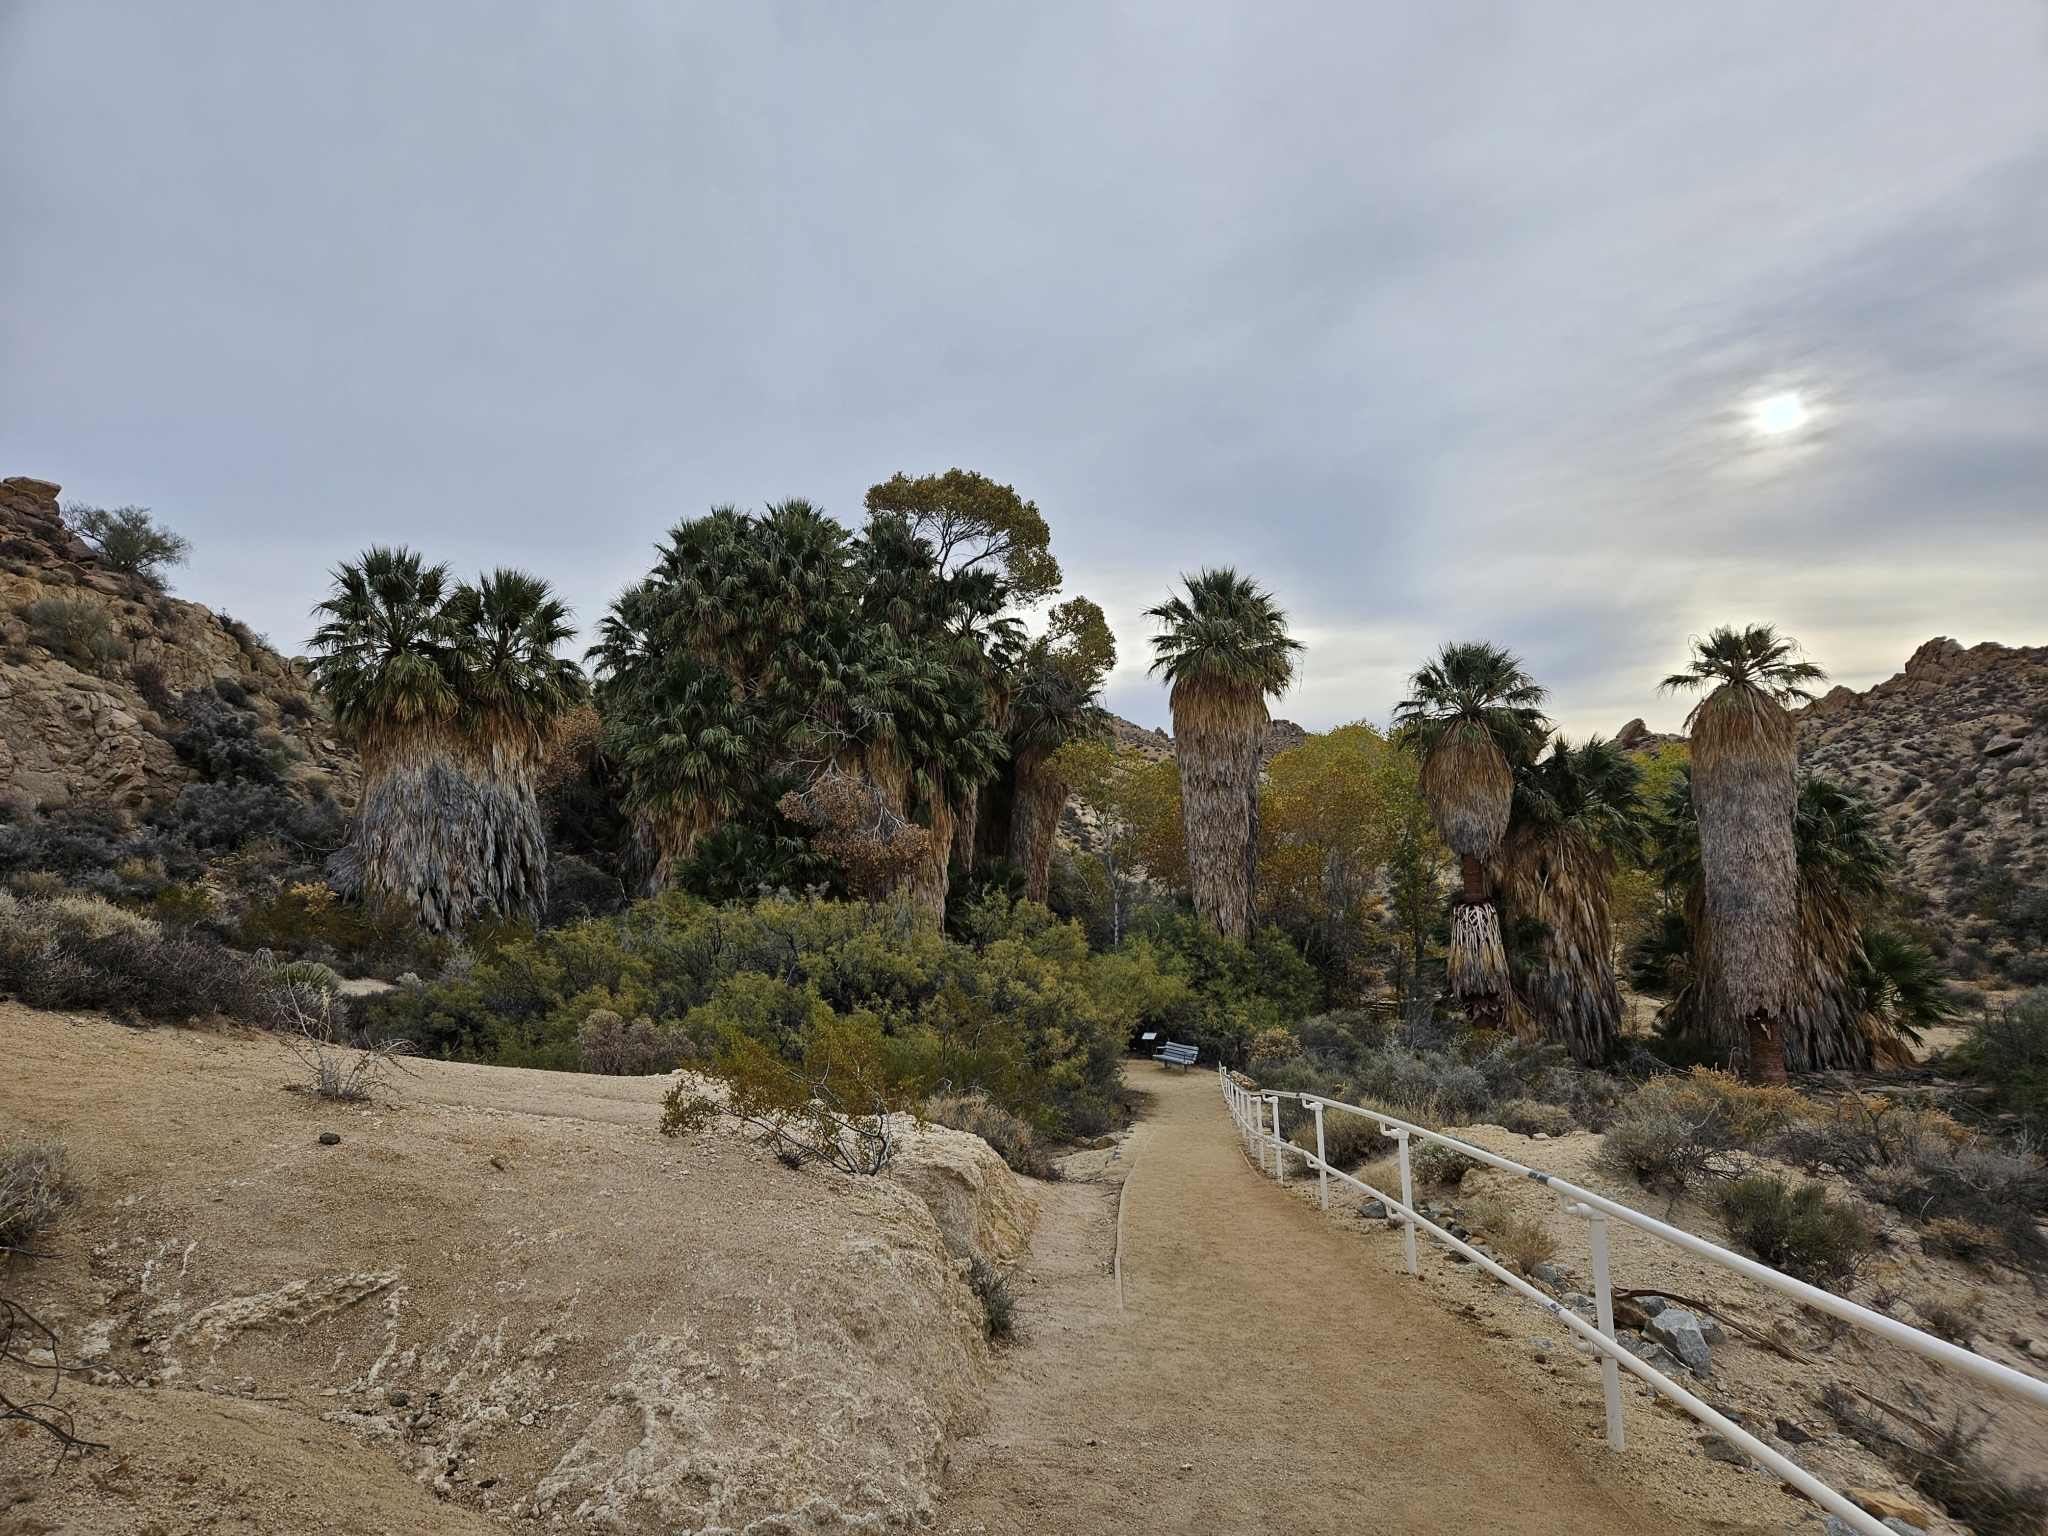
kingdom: Plantae
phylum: Tracheophyta
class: Liliopsida
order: Arecales
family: Arecaceae
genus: Washingtonia
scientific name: Washingtonia filifera
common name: California fan palm
